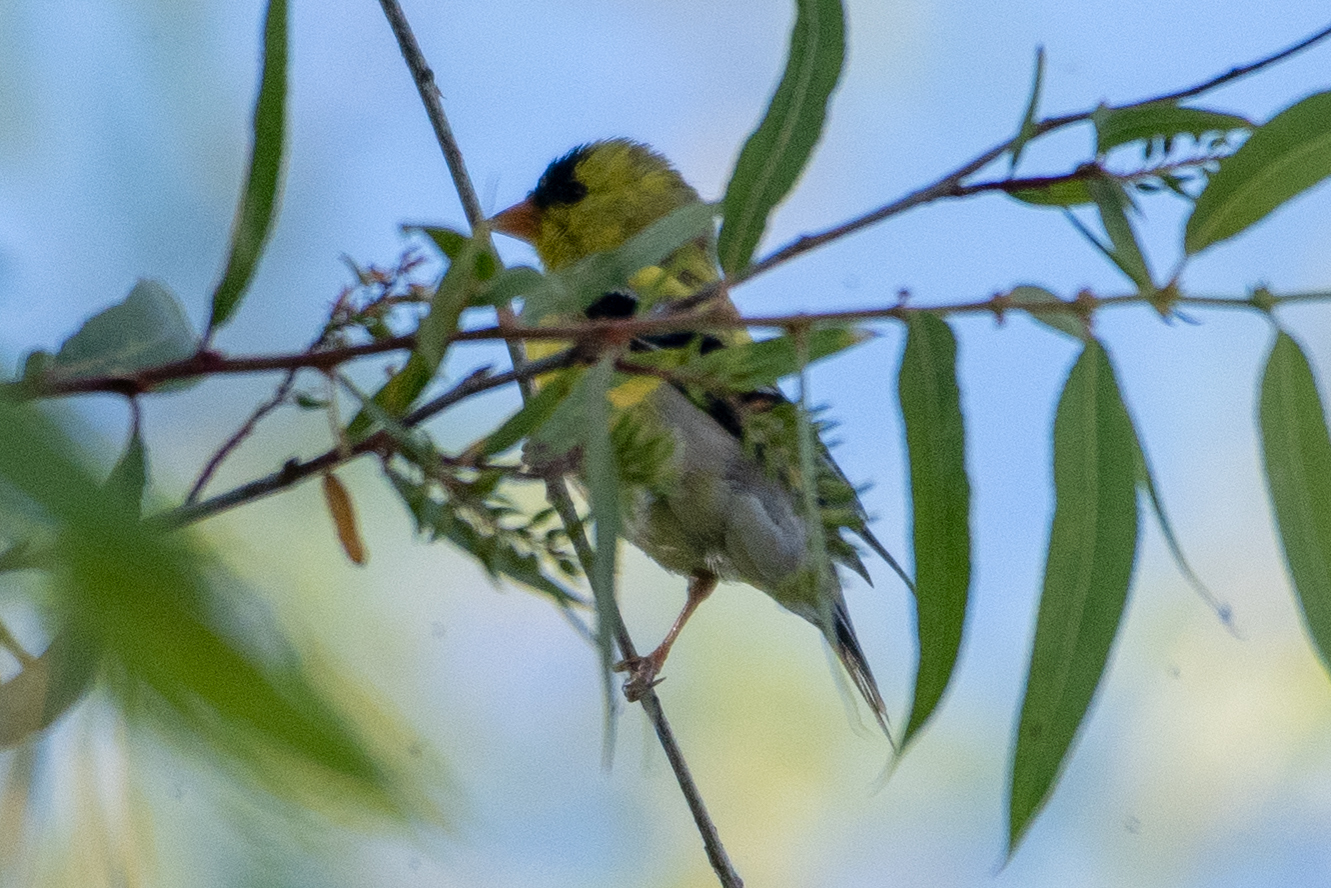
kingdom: Animalia
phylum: Chordata
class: Aves
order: Passeriformes
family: Fringillidae
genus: Spinus
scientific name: Spinus tristis
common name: American goldfinch
